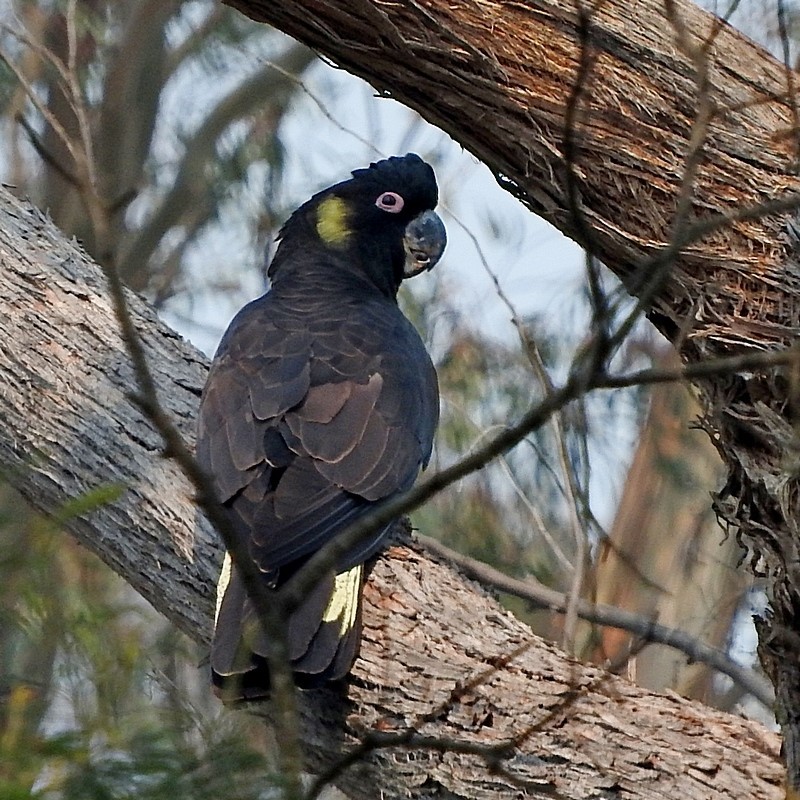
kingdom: Animalia
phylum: Chordata
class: Aves
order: Psittaciformes
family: Cacatuidae
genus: Zanda
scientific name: Zanda funerea
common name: Yellow-tailed black-cockatoo
